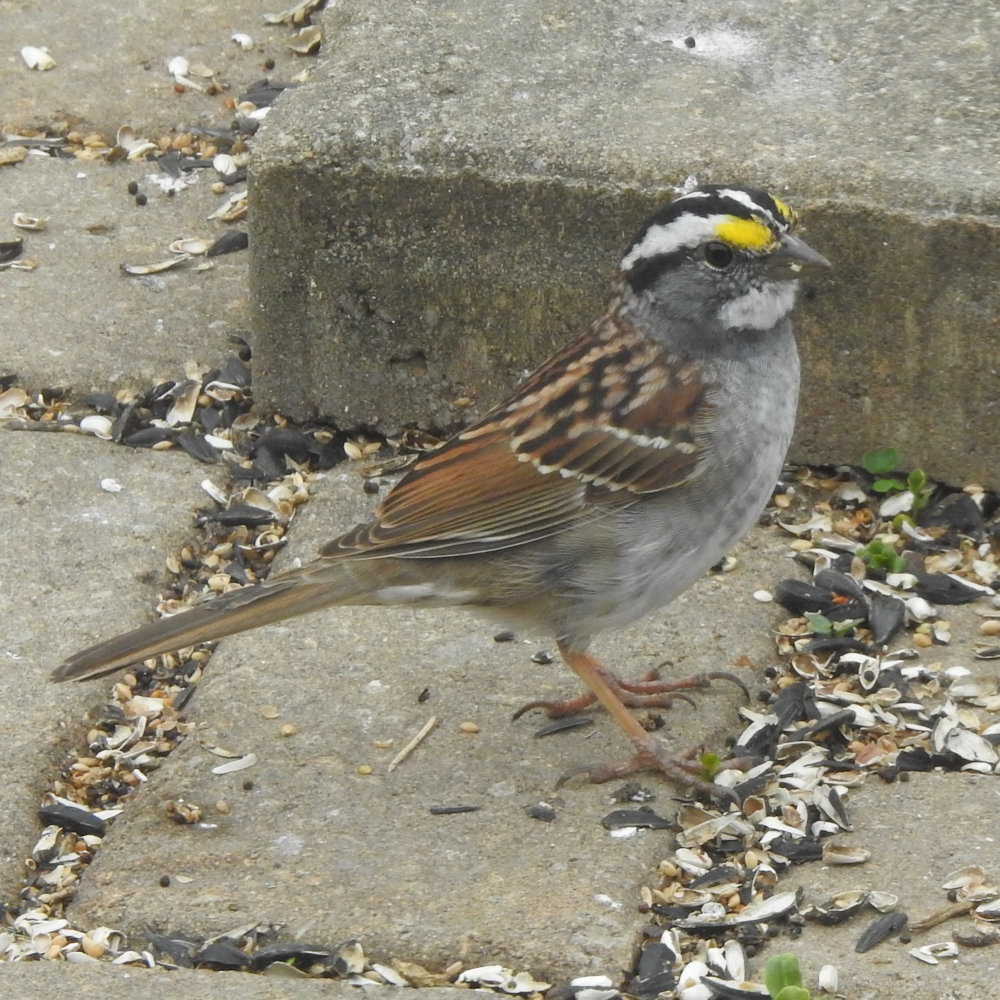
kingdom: Animalia
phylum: Chordata
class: Aves
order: Passeriformes
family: Passerellidae
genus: Zonotrichia
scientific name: Zonotrichia albicollis
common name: White-throated sparrow
